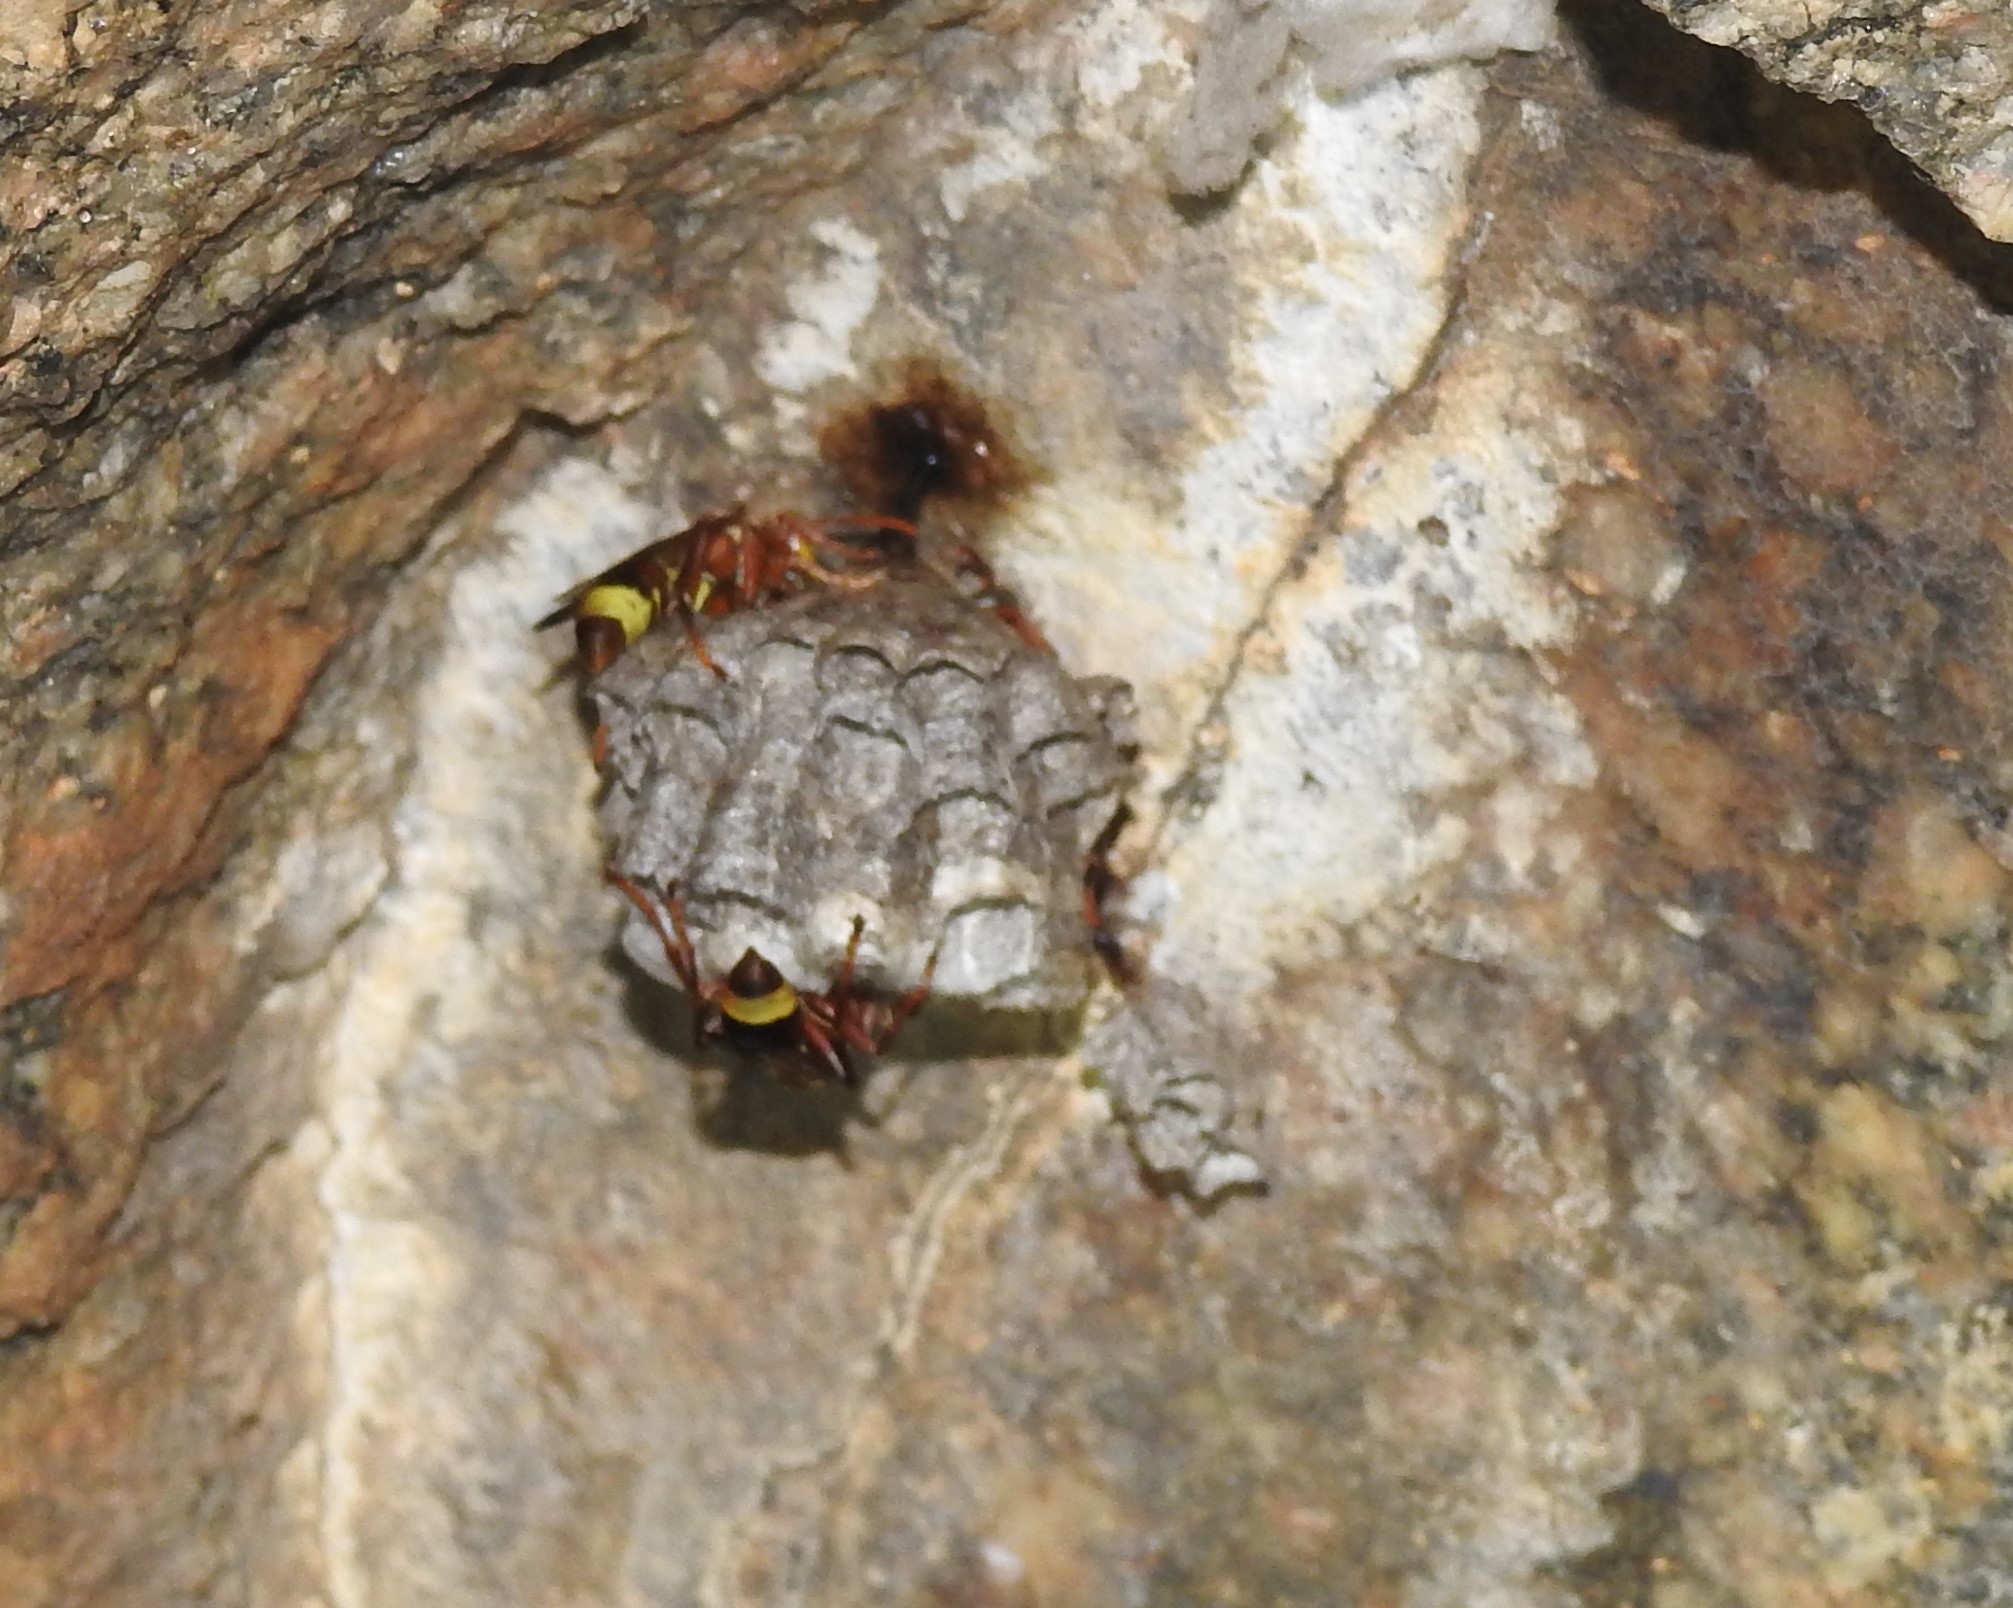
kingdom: Animalia
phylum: Arthropoda
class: Insecta
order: Hymenoptera
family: Eumenidae
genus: Polistes
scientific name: Polistes stigma
